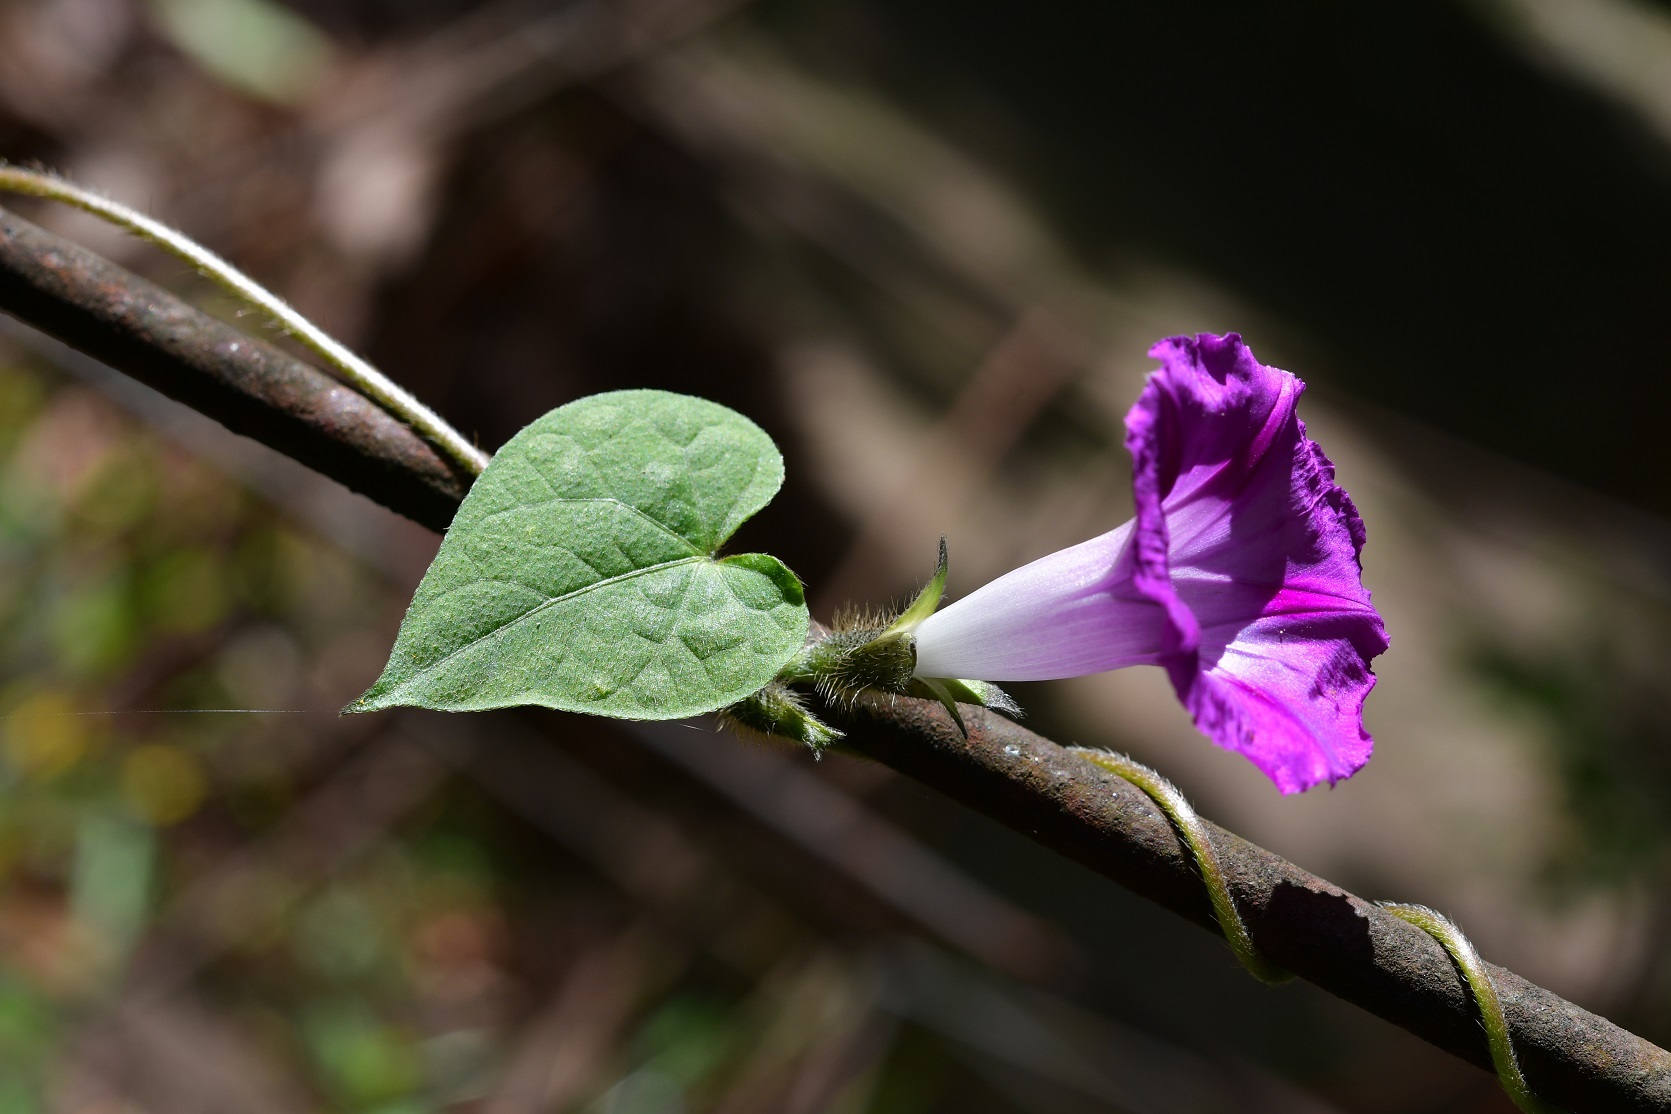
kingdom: Plantae
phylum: Tracheophyta
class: Magnoliopsida
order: Solanales
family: Convolvulaceae
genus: Ipomoea
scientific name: Ipomoea purpurea
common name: Common morning-glory
